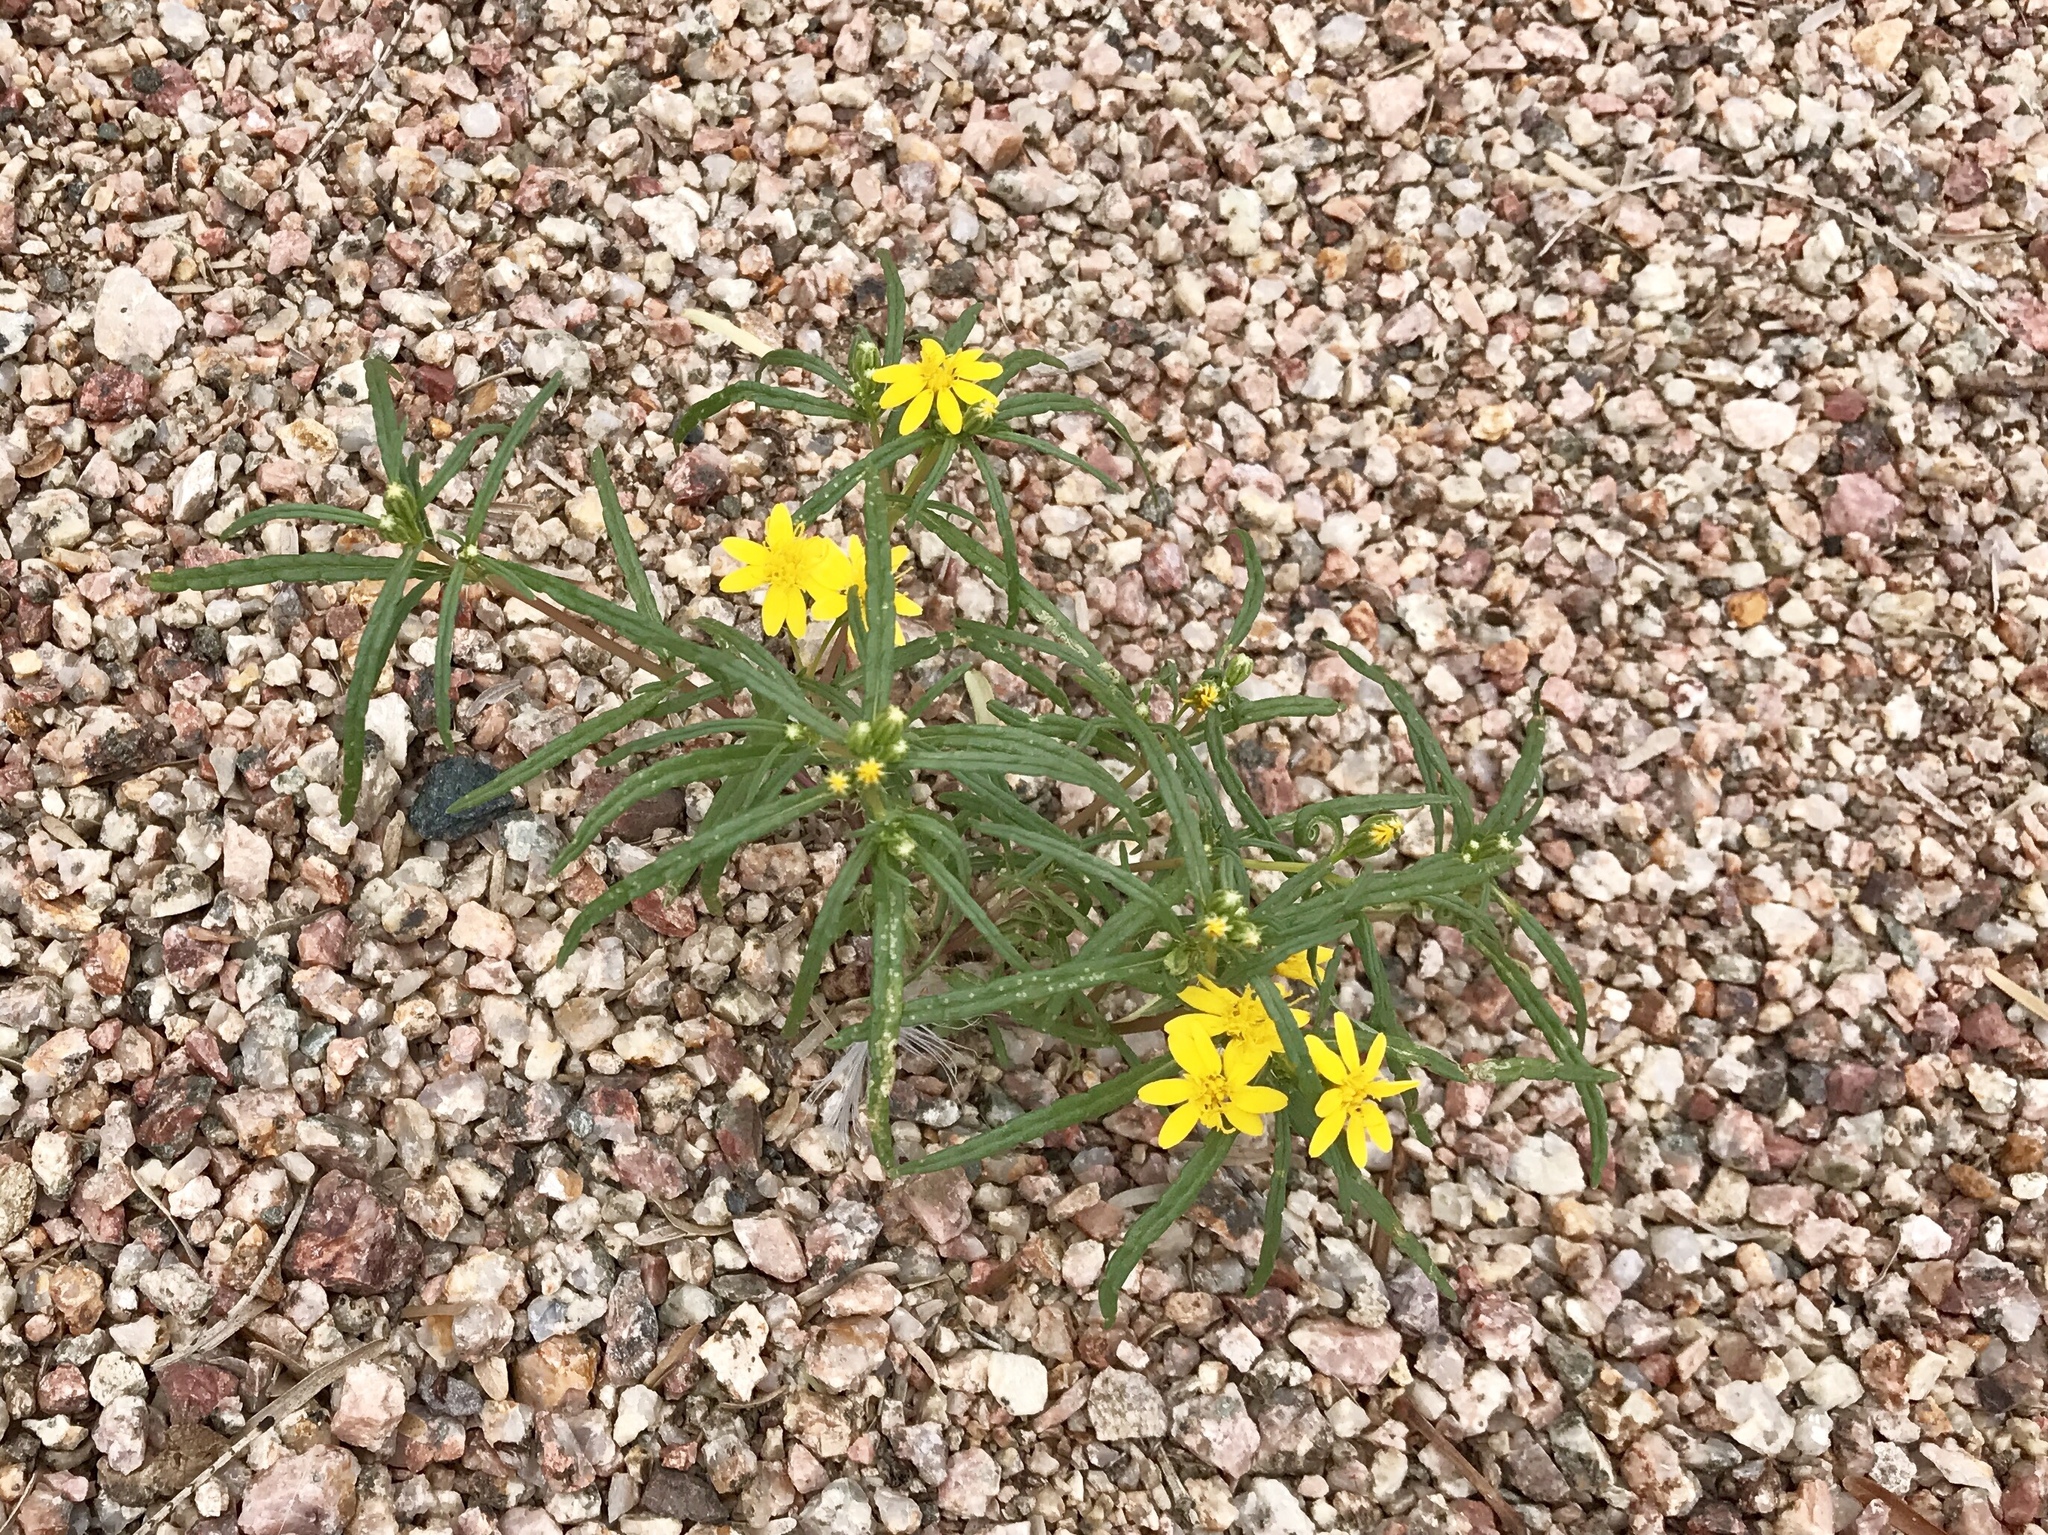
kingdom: Plantae
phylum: Tracheophyta
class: Magnoliopsida
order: Asterales
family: Asteraceae
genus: Pectis
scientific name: Pectis papposa
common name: Many-bristle chinchweed
